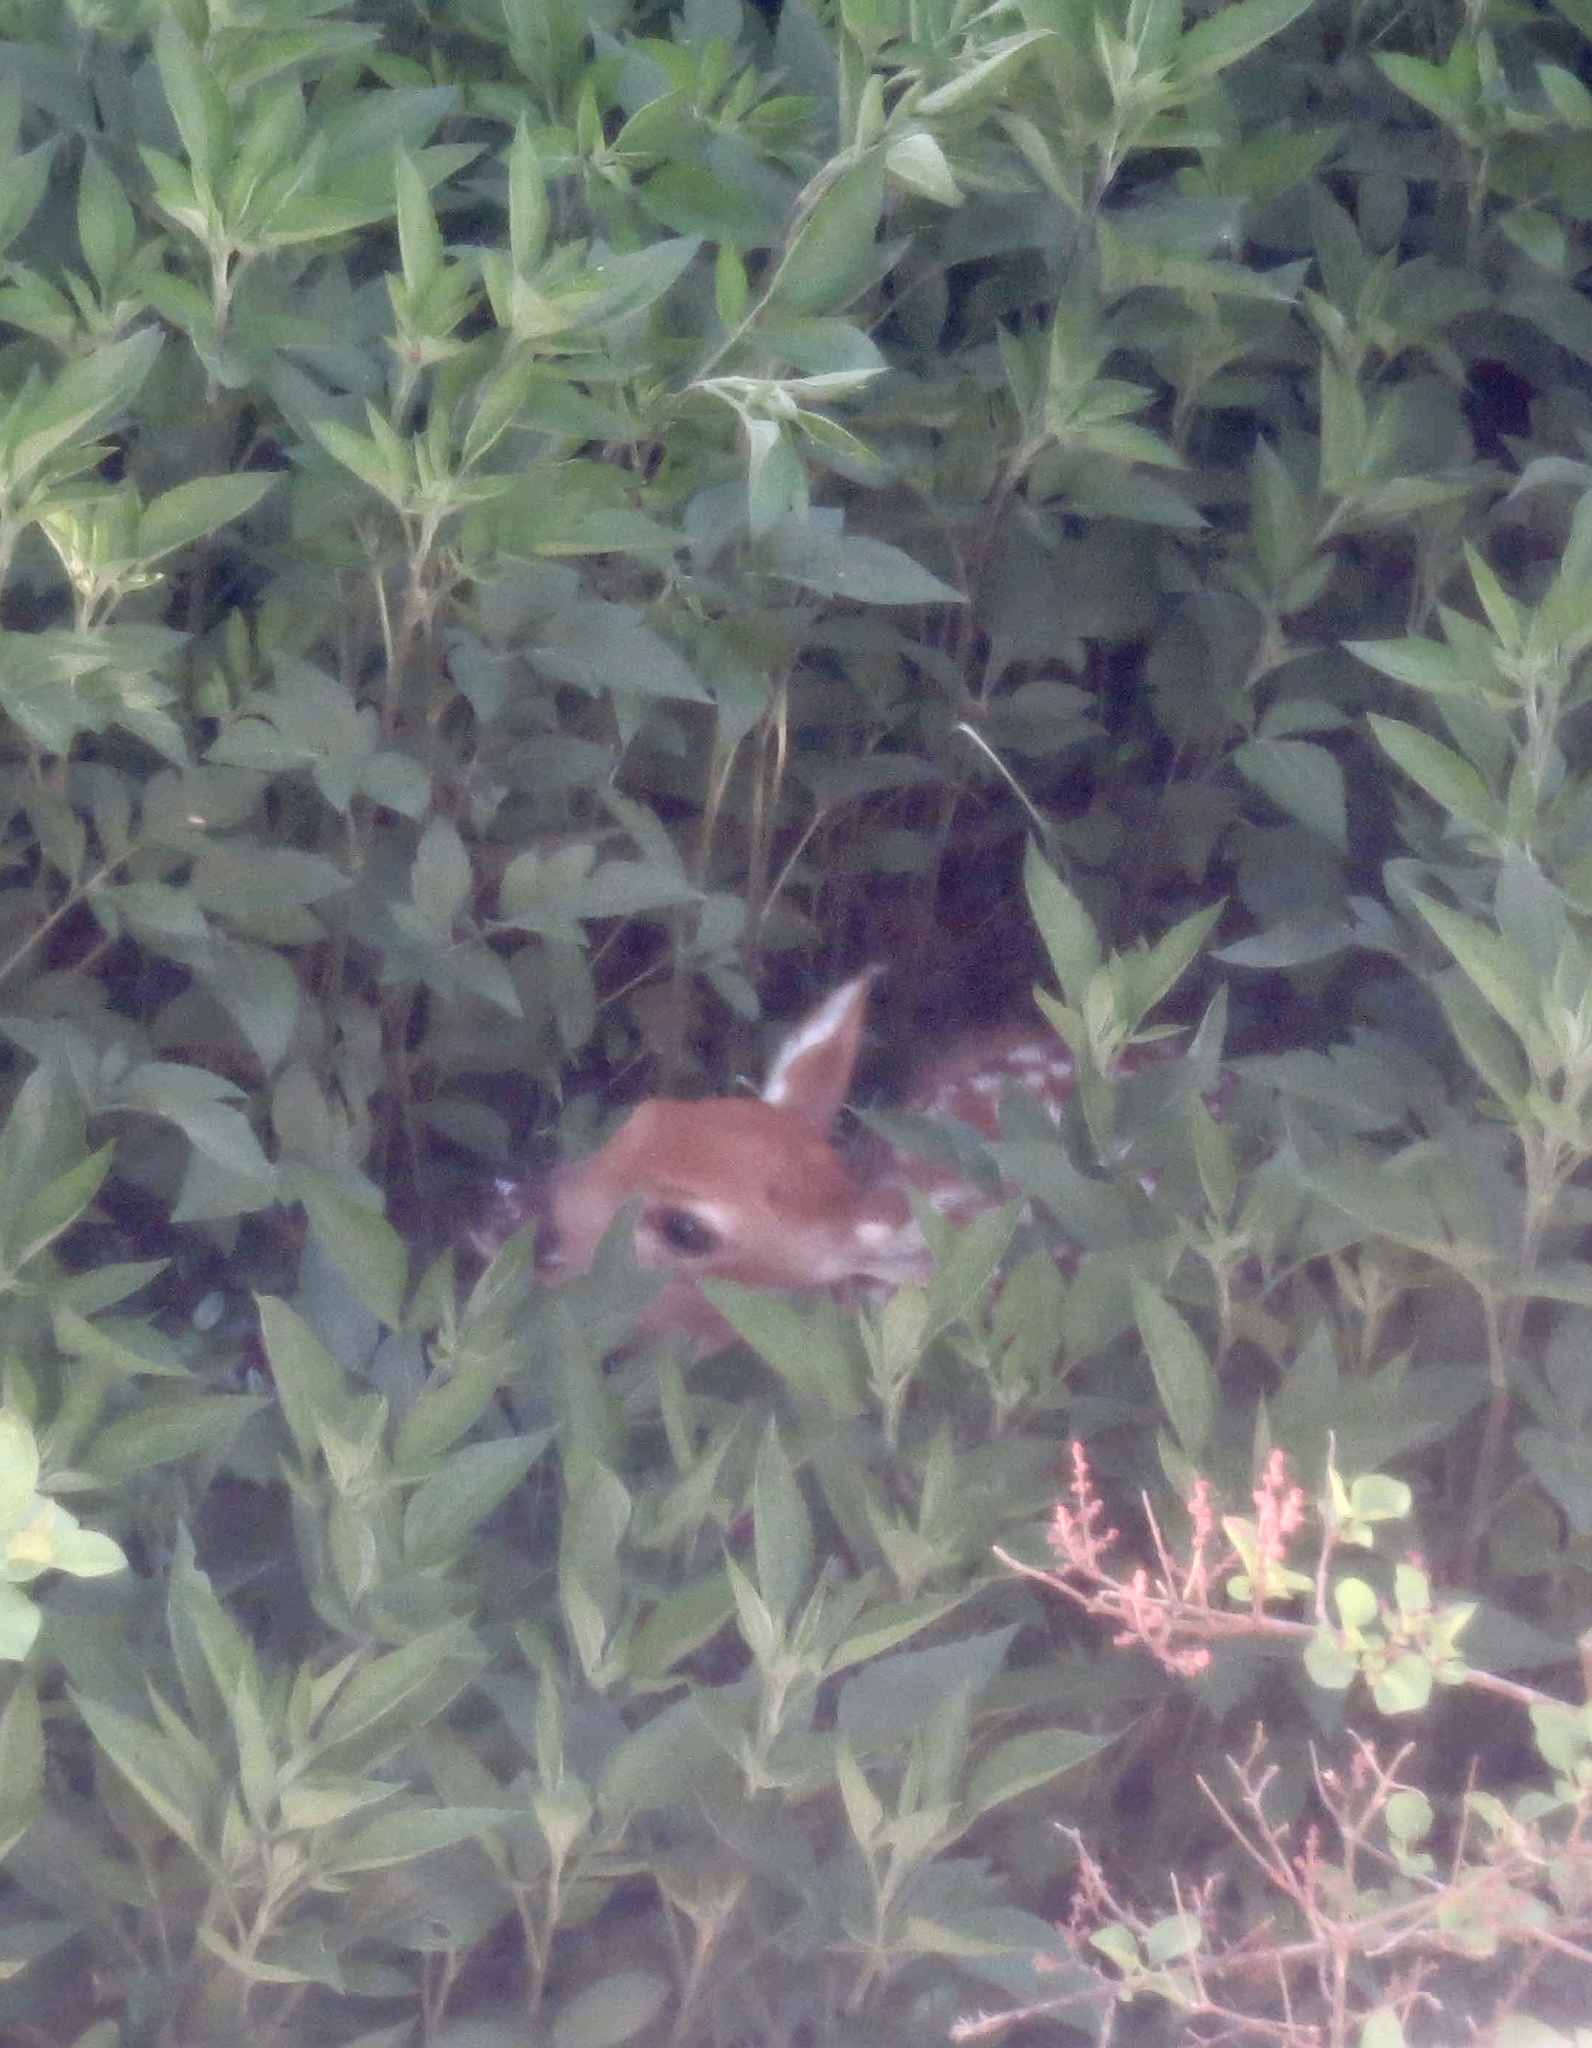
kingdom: Animalia
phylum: Chordata
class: Mammalia
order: Artiodactyla
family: Cervidae
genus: Odocoileus
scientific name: Odocoileus virginianus
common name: White-tailed deer
